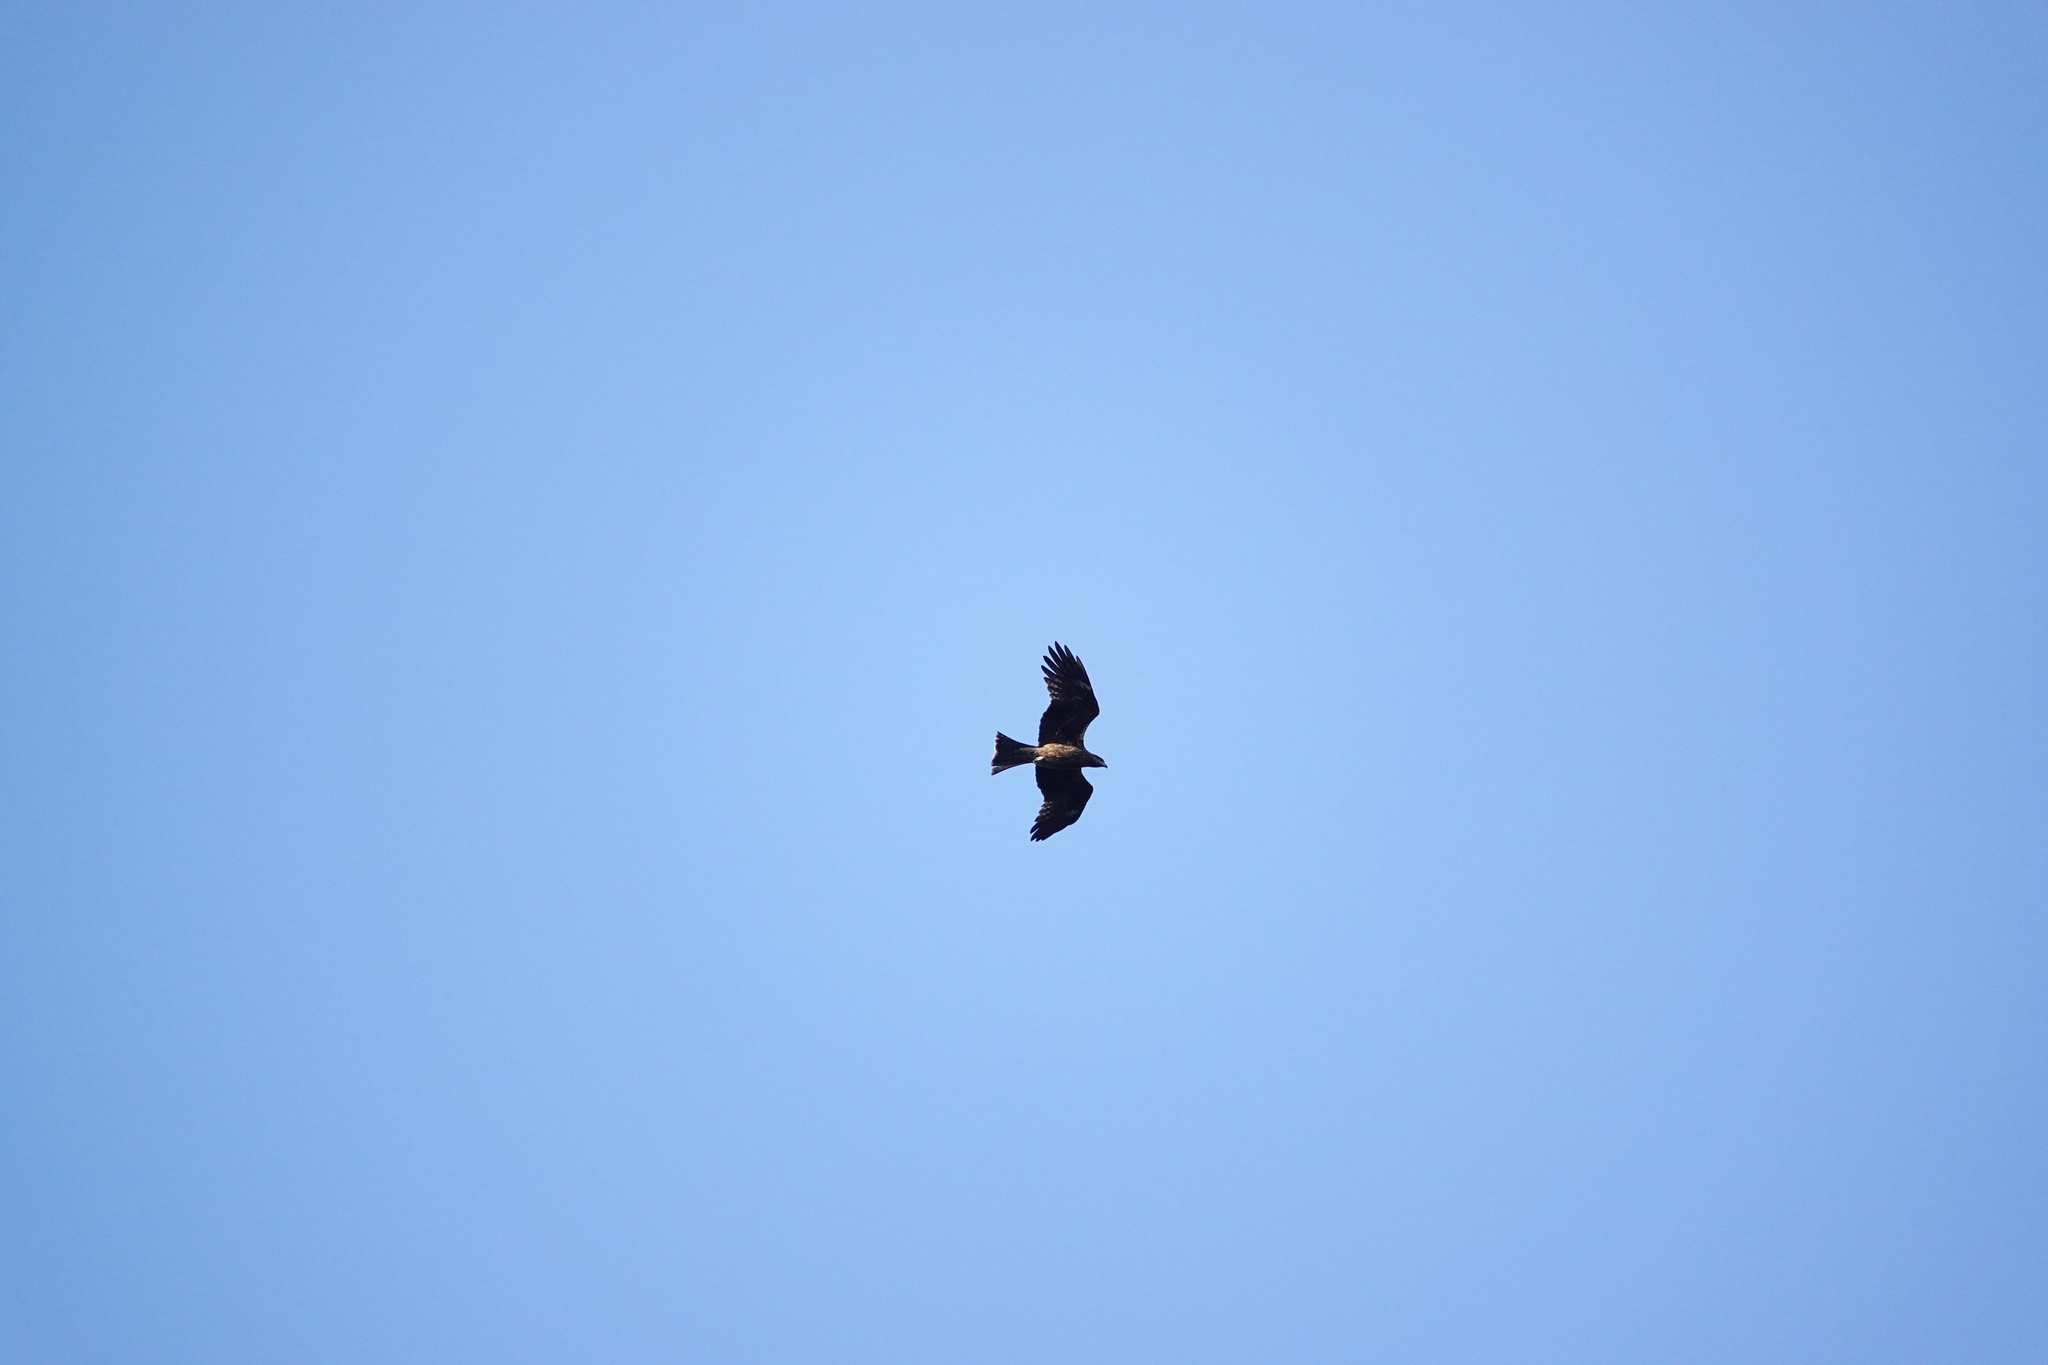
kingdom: Animalia
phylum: Chordata
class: Aves
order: Accipitriformes
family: Accipitridae
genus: Milvus
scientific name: Milvus migrans
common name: Black kite
